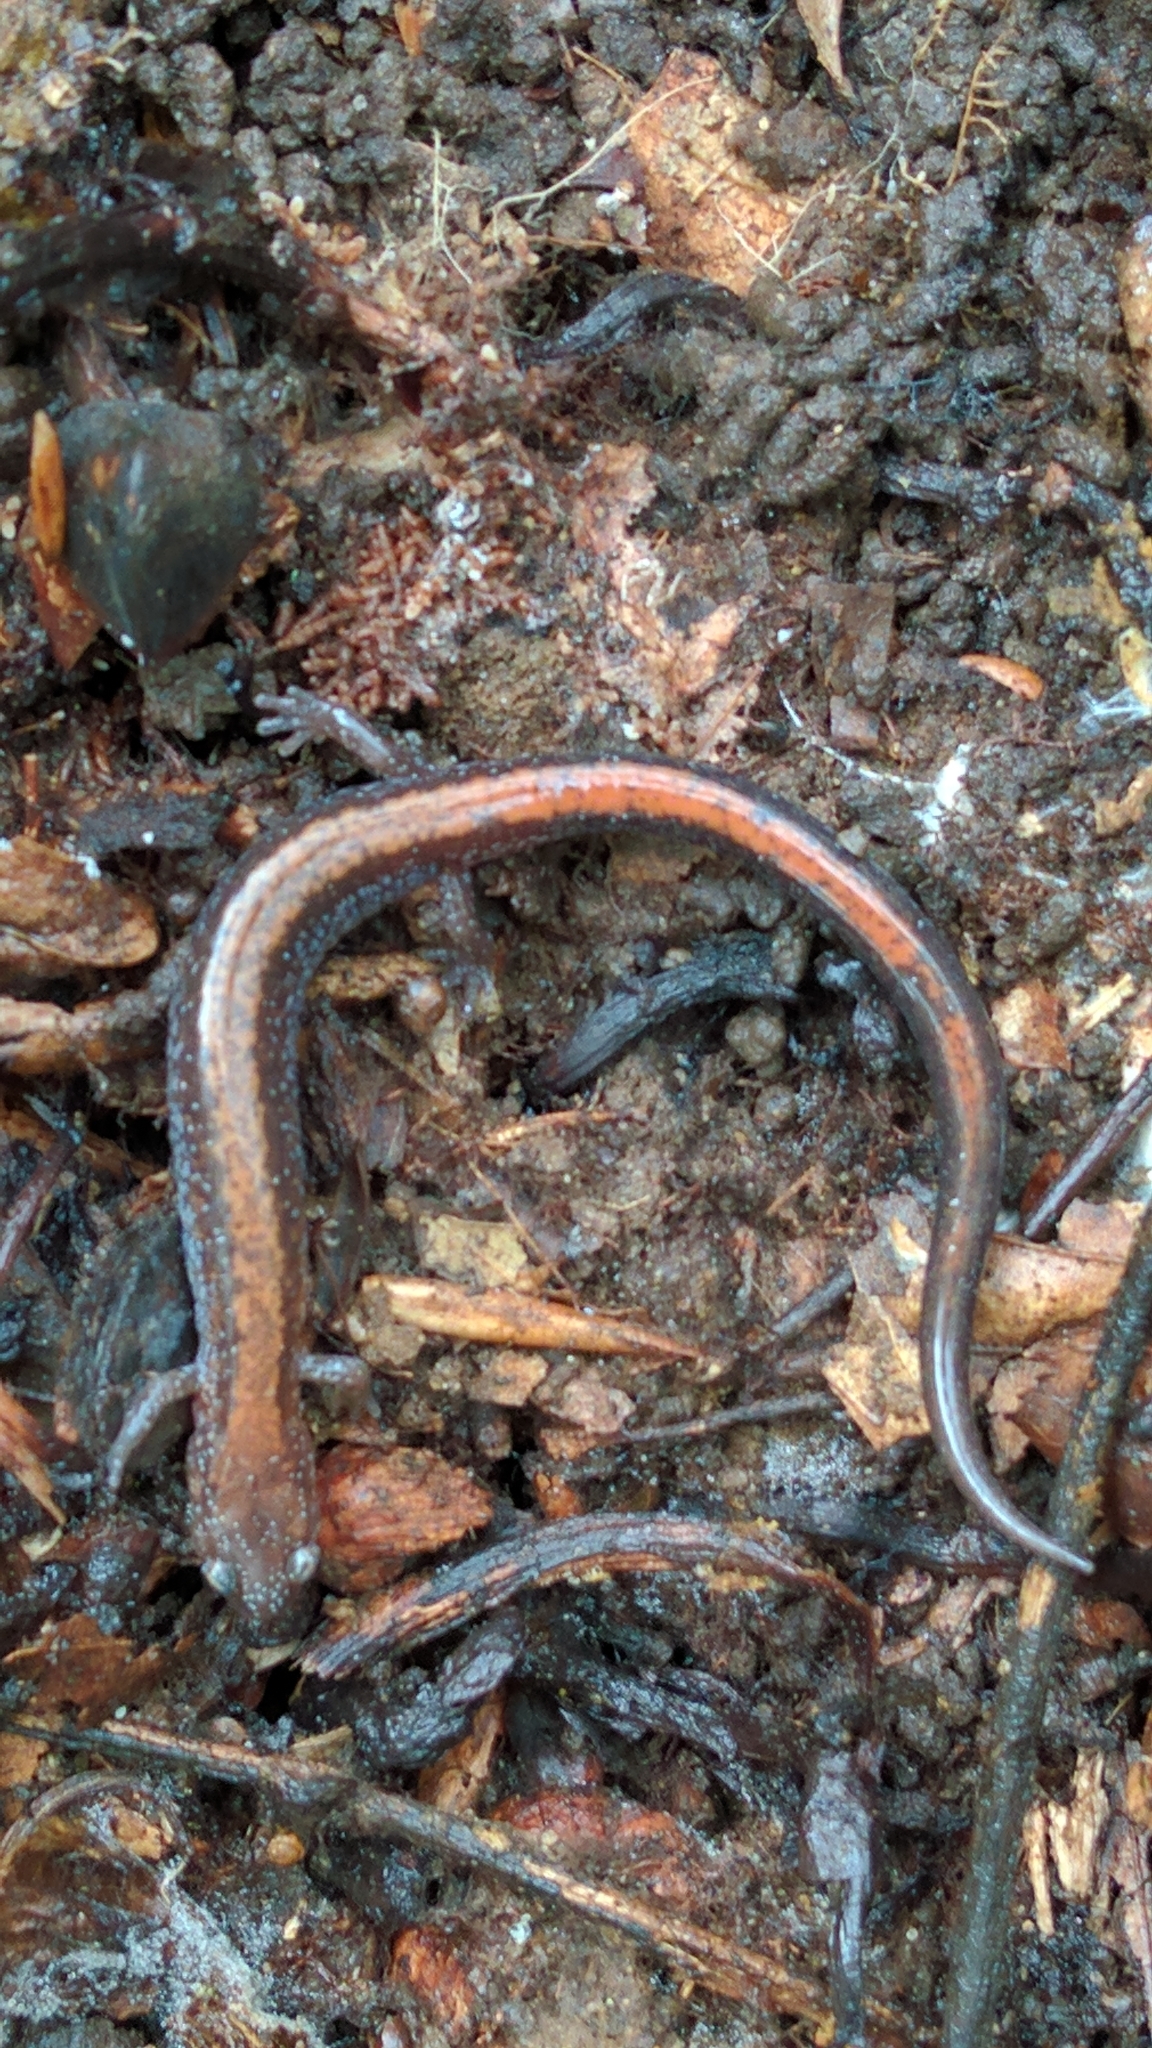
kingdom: Animalia
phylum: Chordata
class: Amphibia
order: Caudata
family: Plethodontidae
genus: Plethodon
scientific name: Plethodon cinereus
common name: Redback salamander
